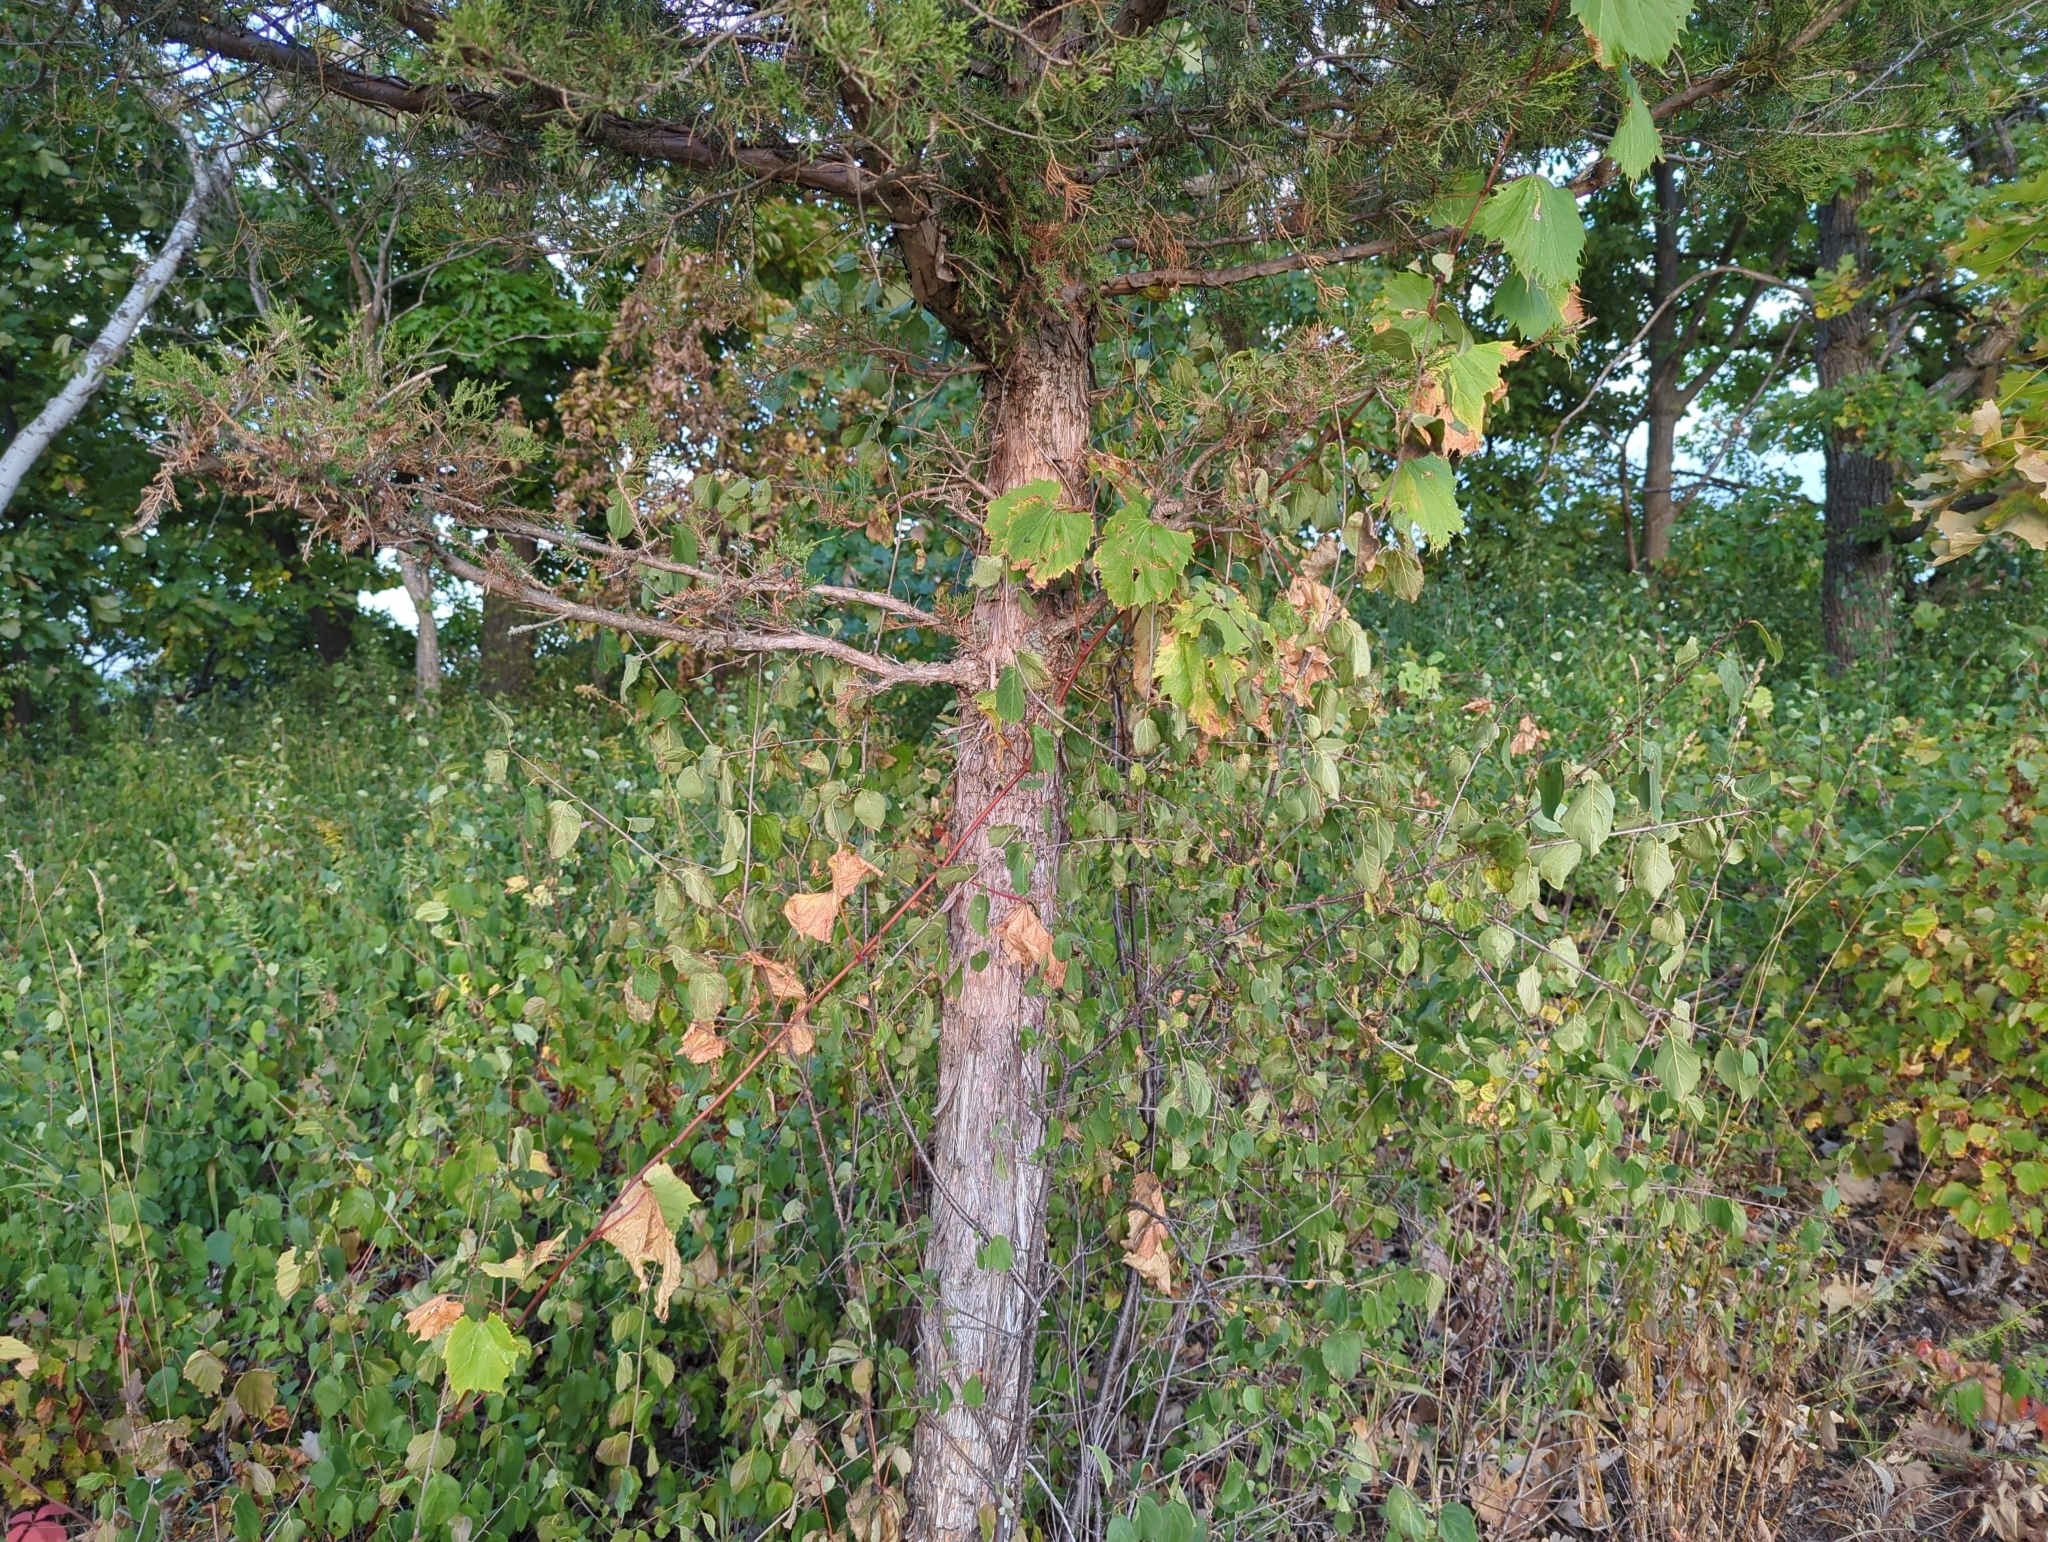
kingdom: Plantae
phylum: Tracheophyta
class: Pinopsida
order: Pinales
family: Cupressaceae
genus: Juniperus
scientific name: Juniperus virginiana
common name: Red juniper
